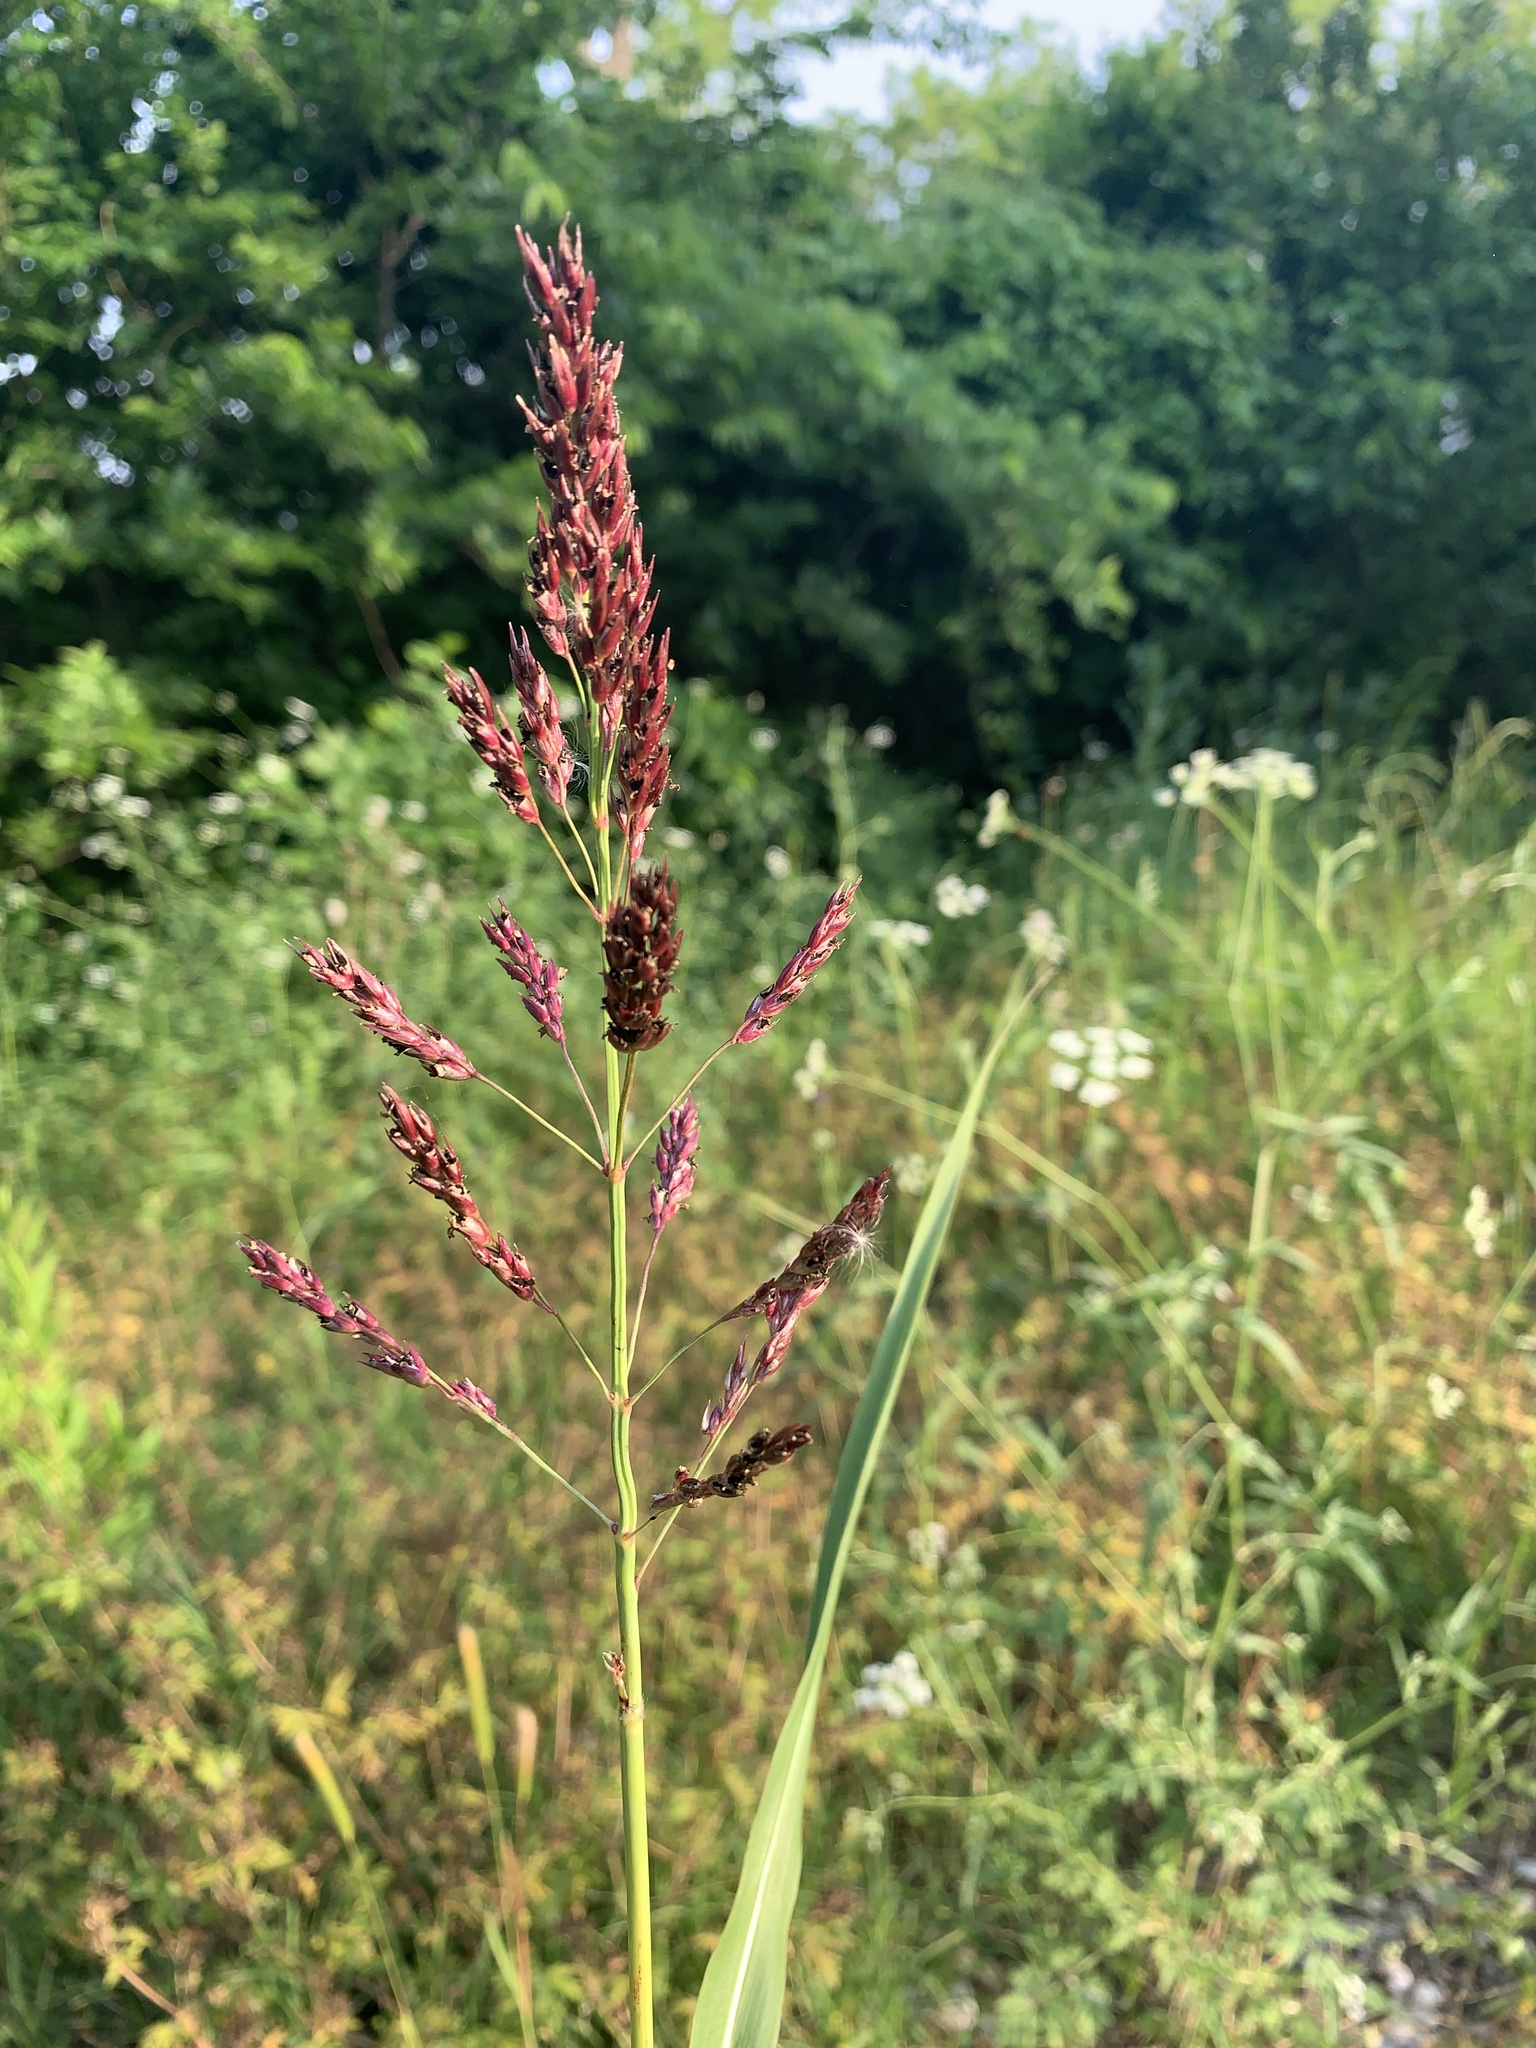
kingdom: Plantae
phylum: Tracheophyta
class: Liliopsida
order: Poales
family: Poaceae
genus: Sorghum
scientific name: Sorghum halepense
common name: Johnson-grass
